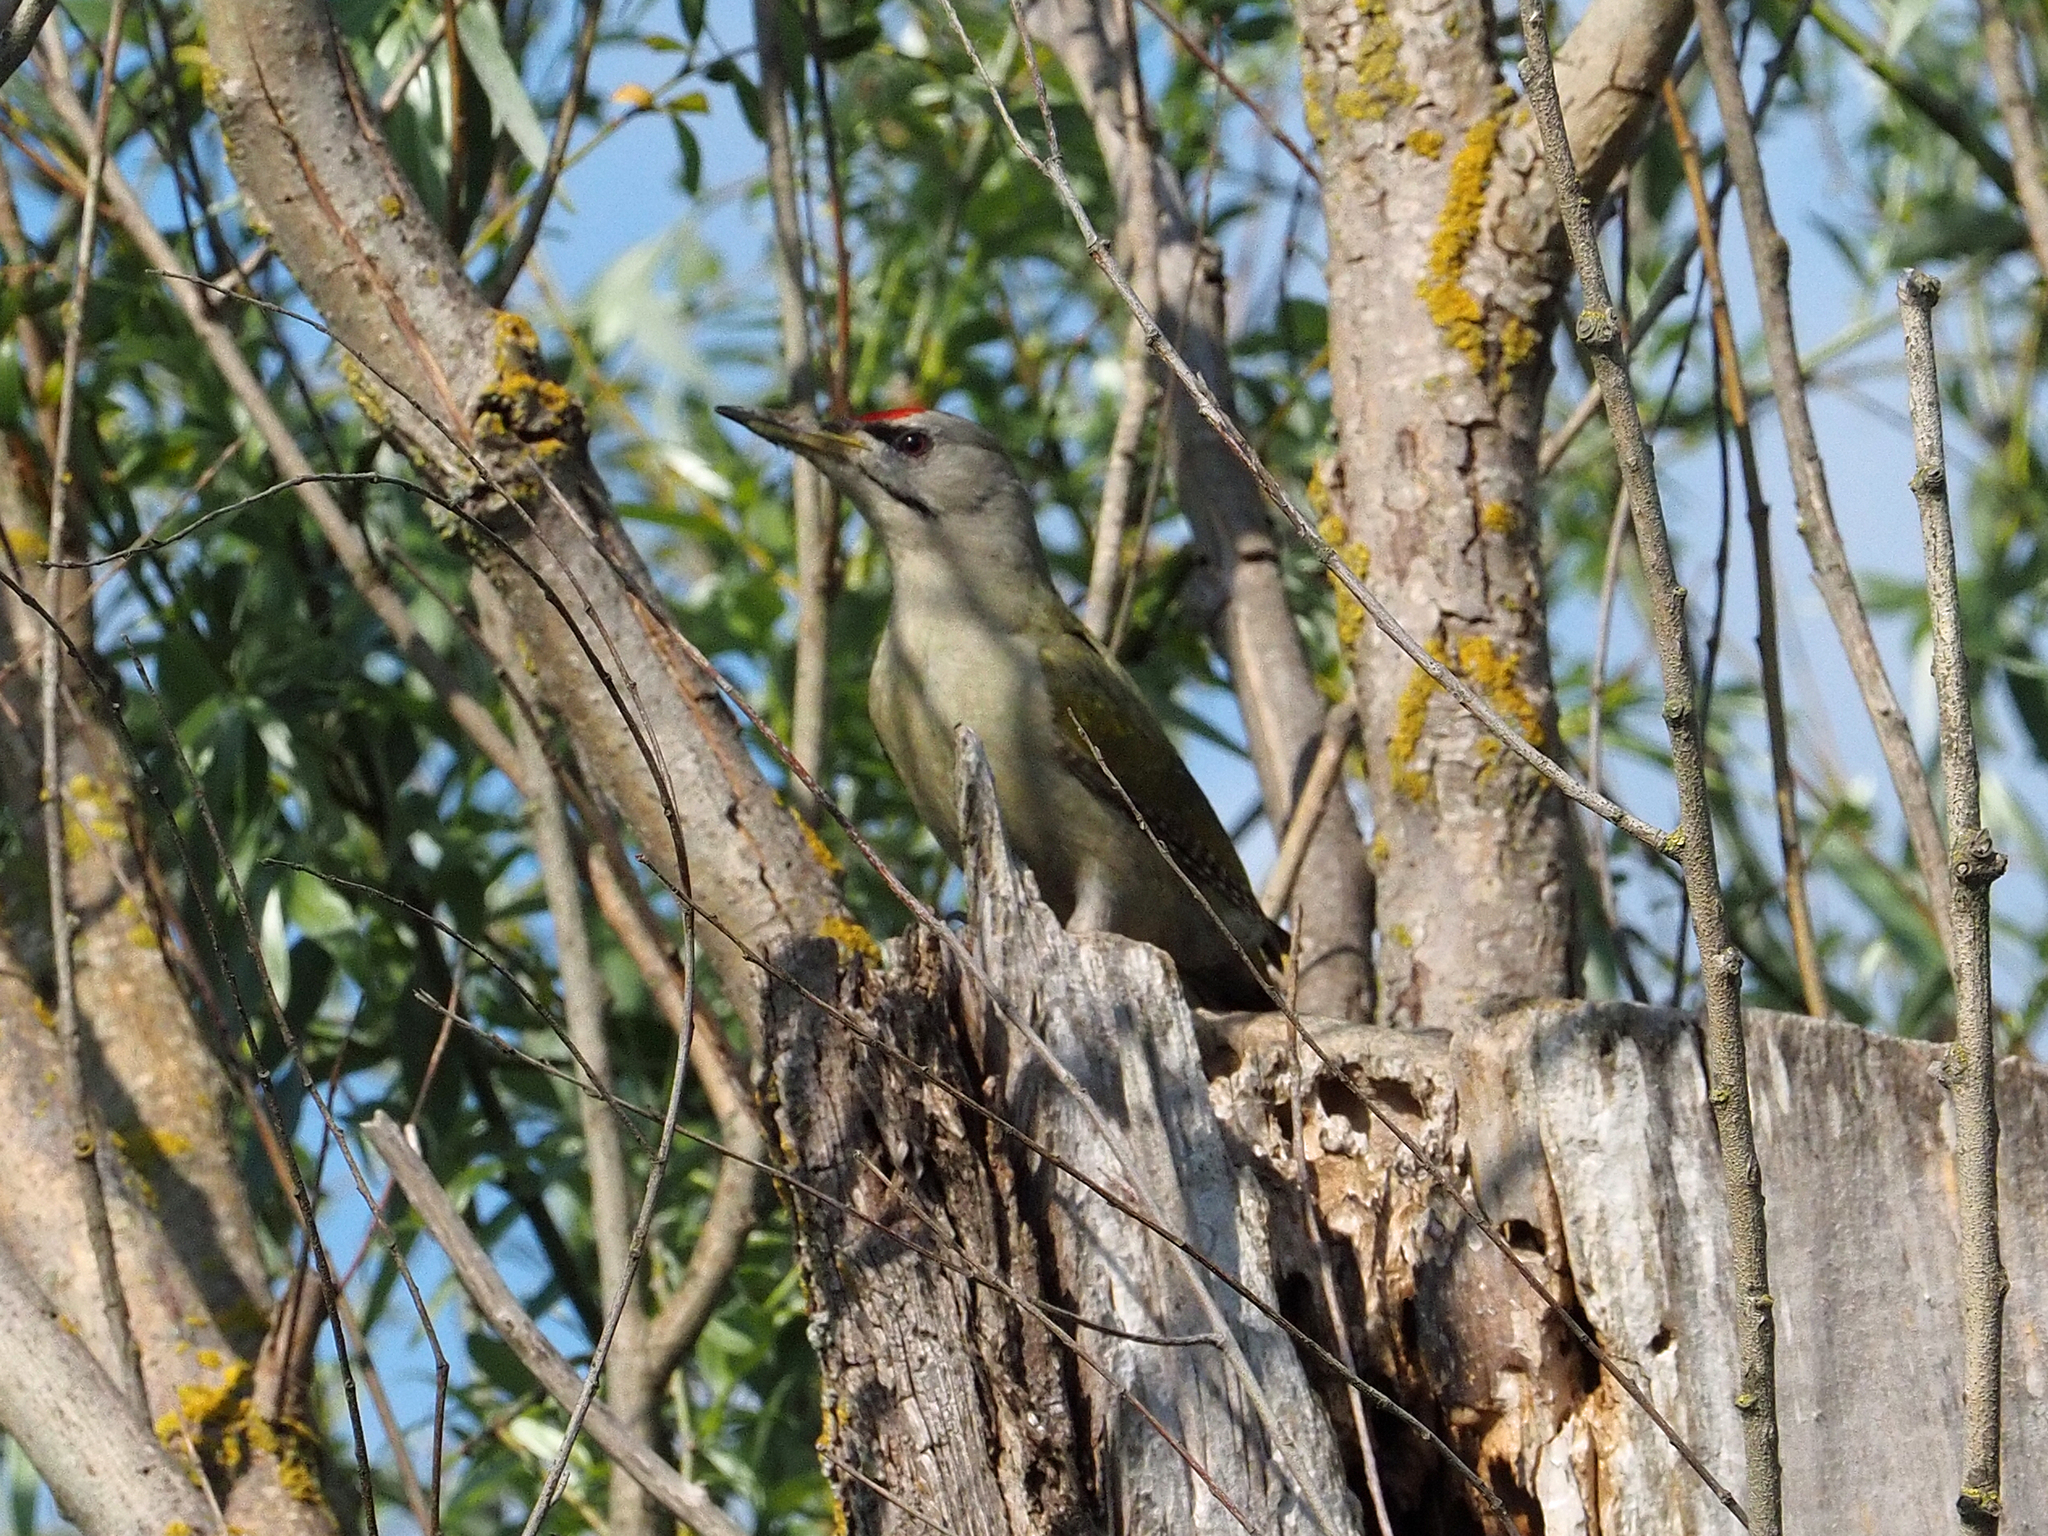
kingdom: Animalia
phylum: Chordata
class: Aves
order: Piciformes
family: Picidae
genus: Picus
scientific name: Picus canus
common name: Grey-headed woodpecker
